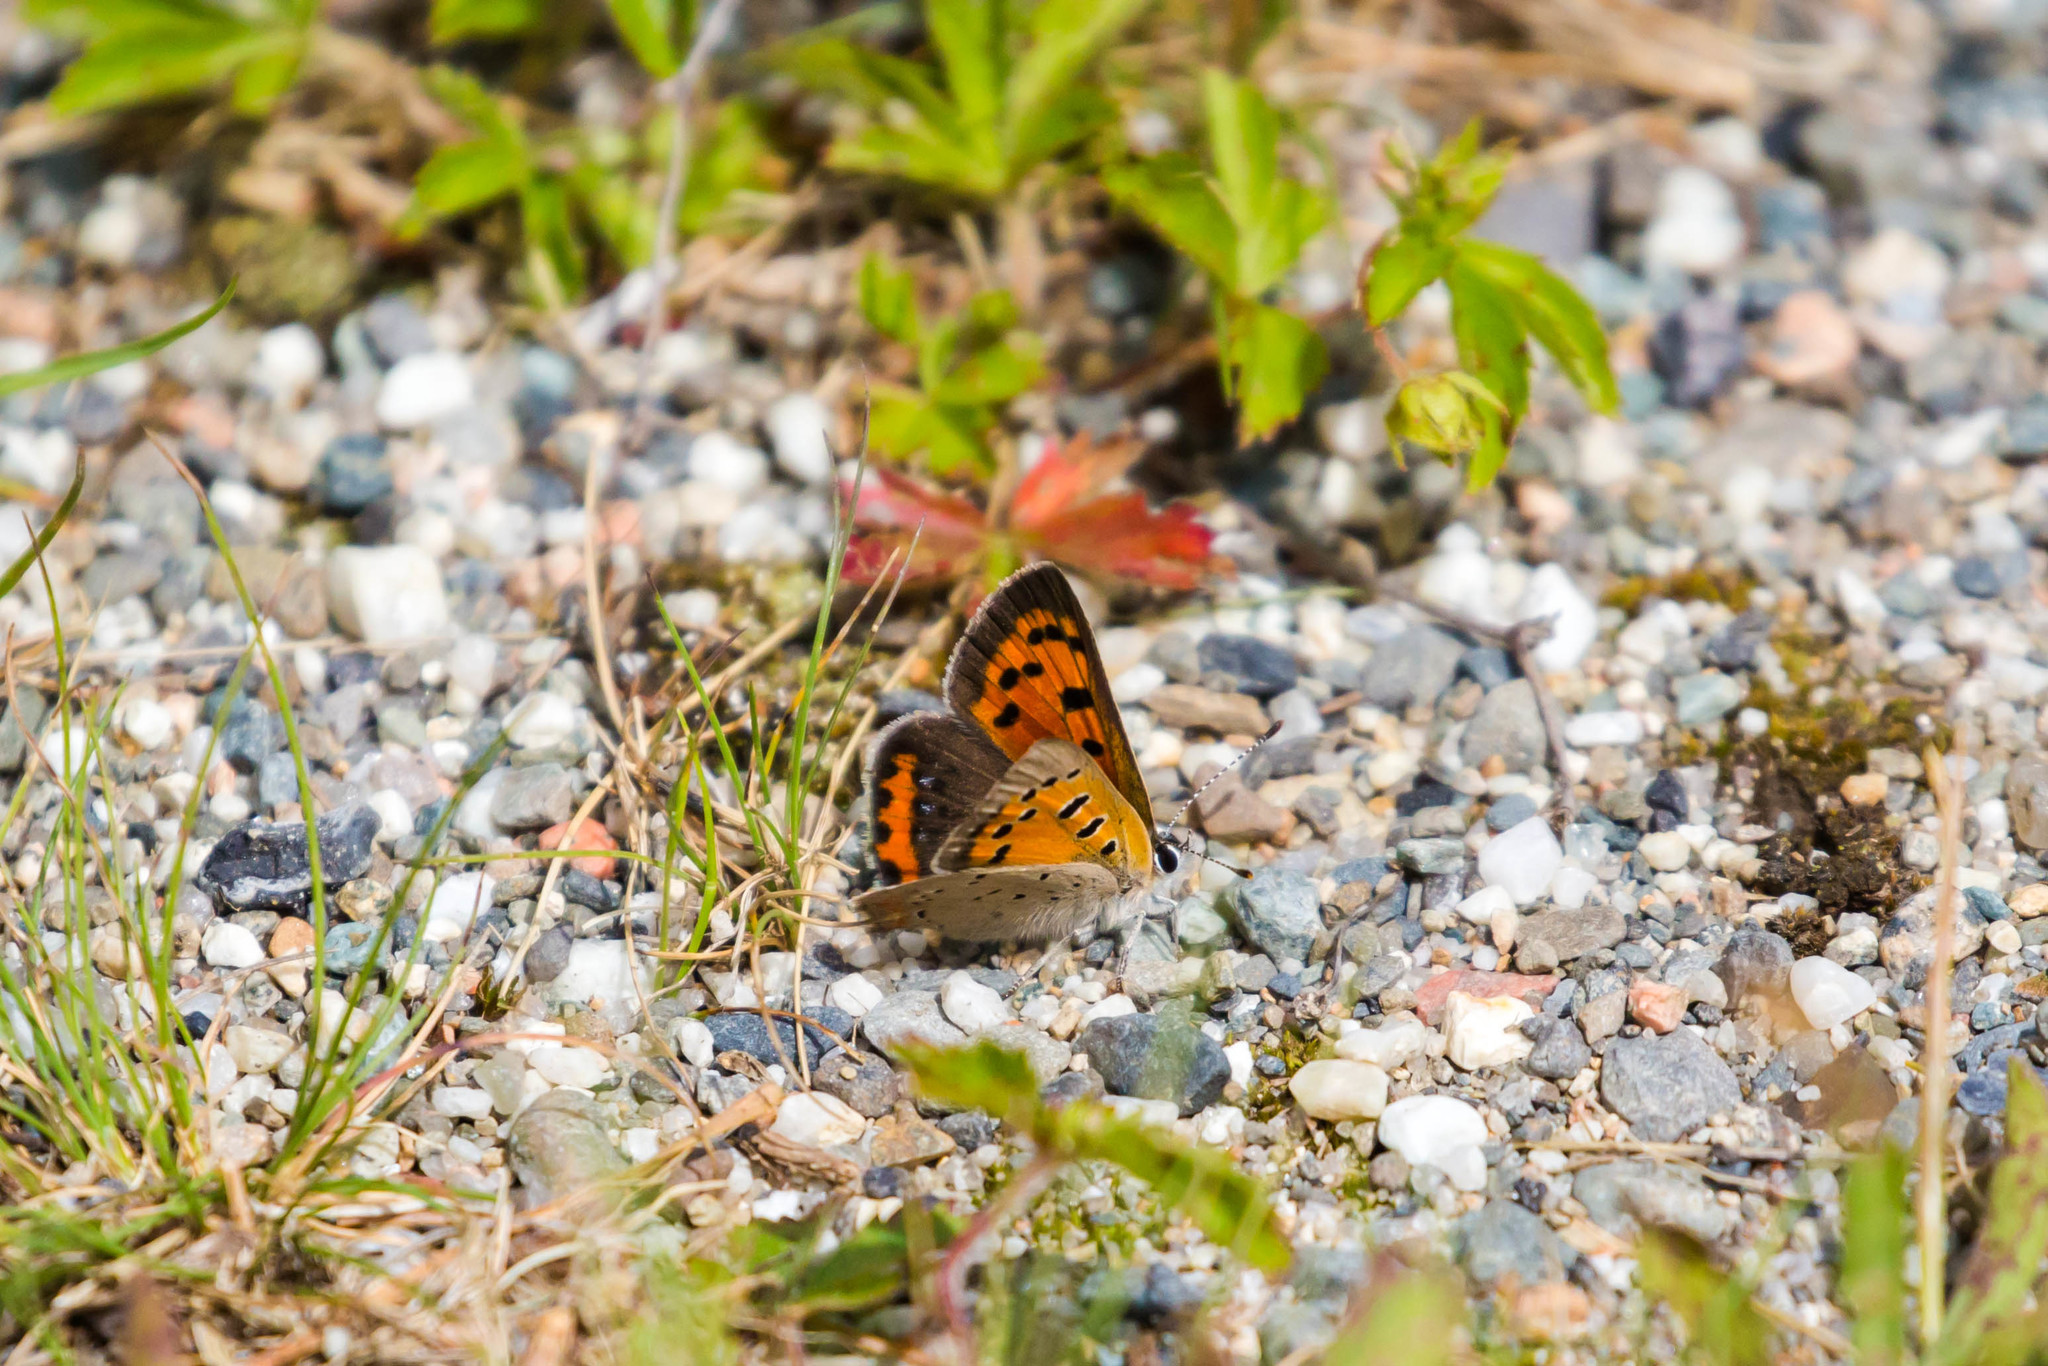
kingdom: Animalia
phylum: Arthropoda
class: Insecta
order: Lepidoptera
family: Lycaenidae
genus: Lycaena
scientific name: Lycaena hypophlaeas
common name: American copper
